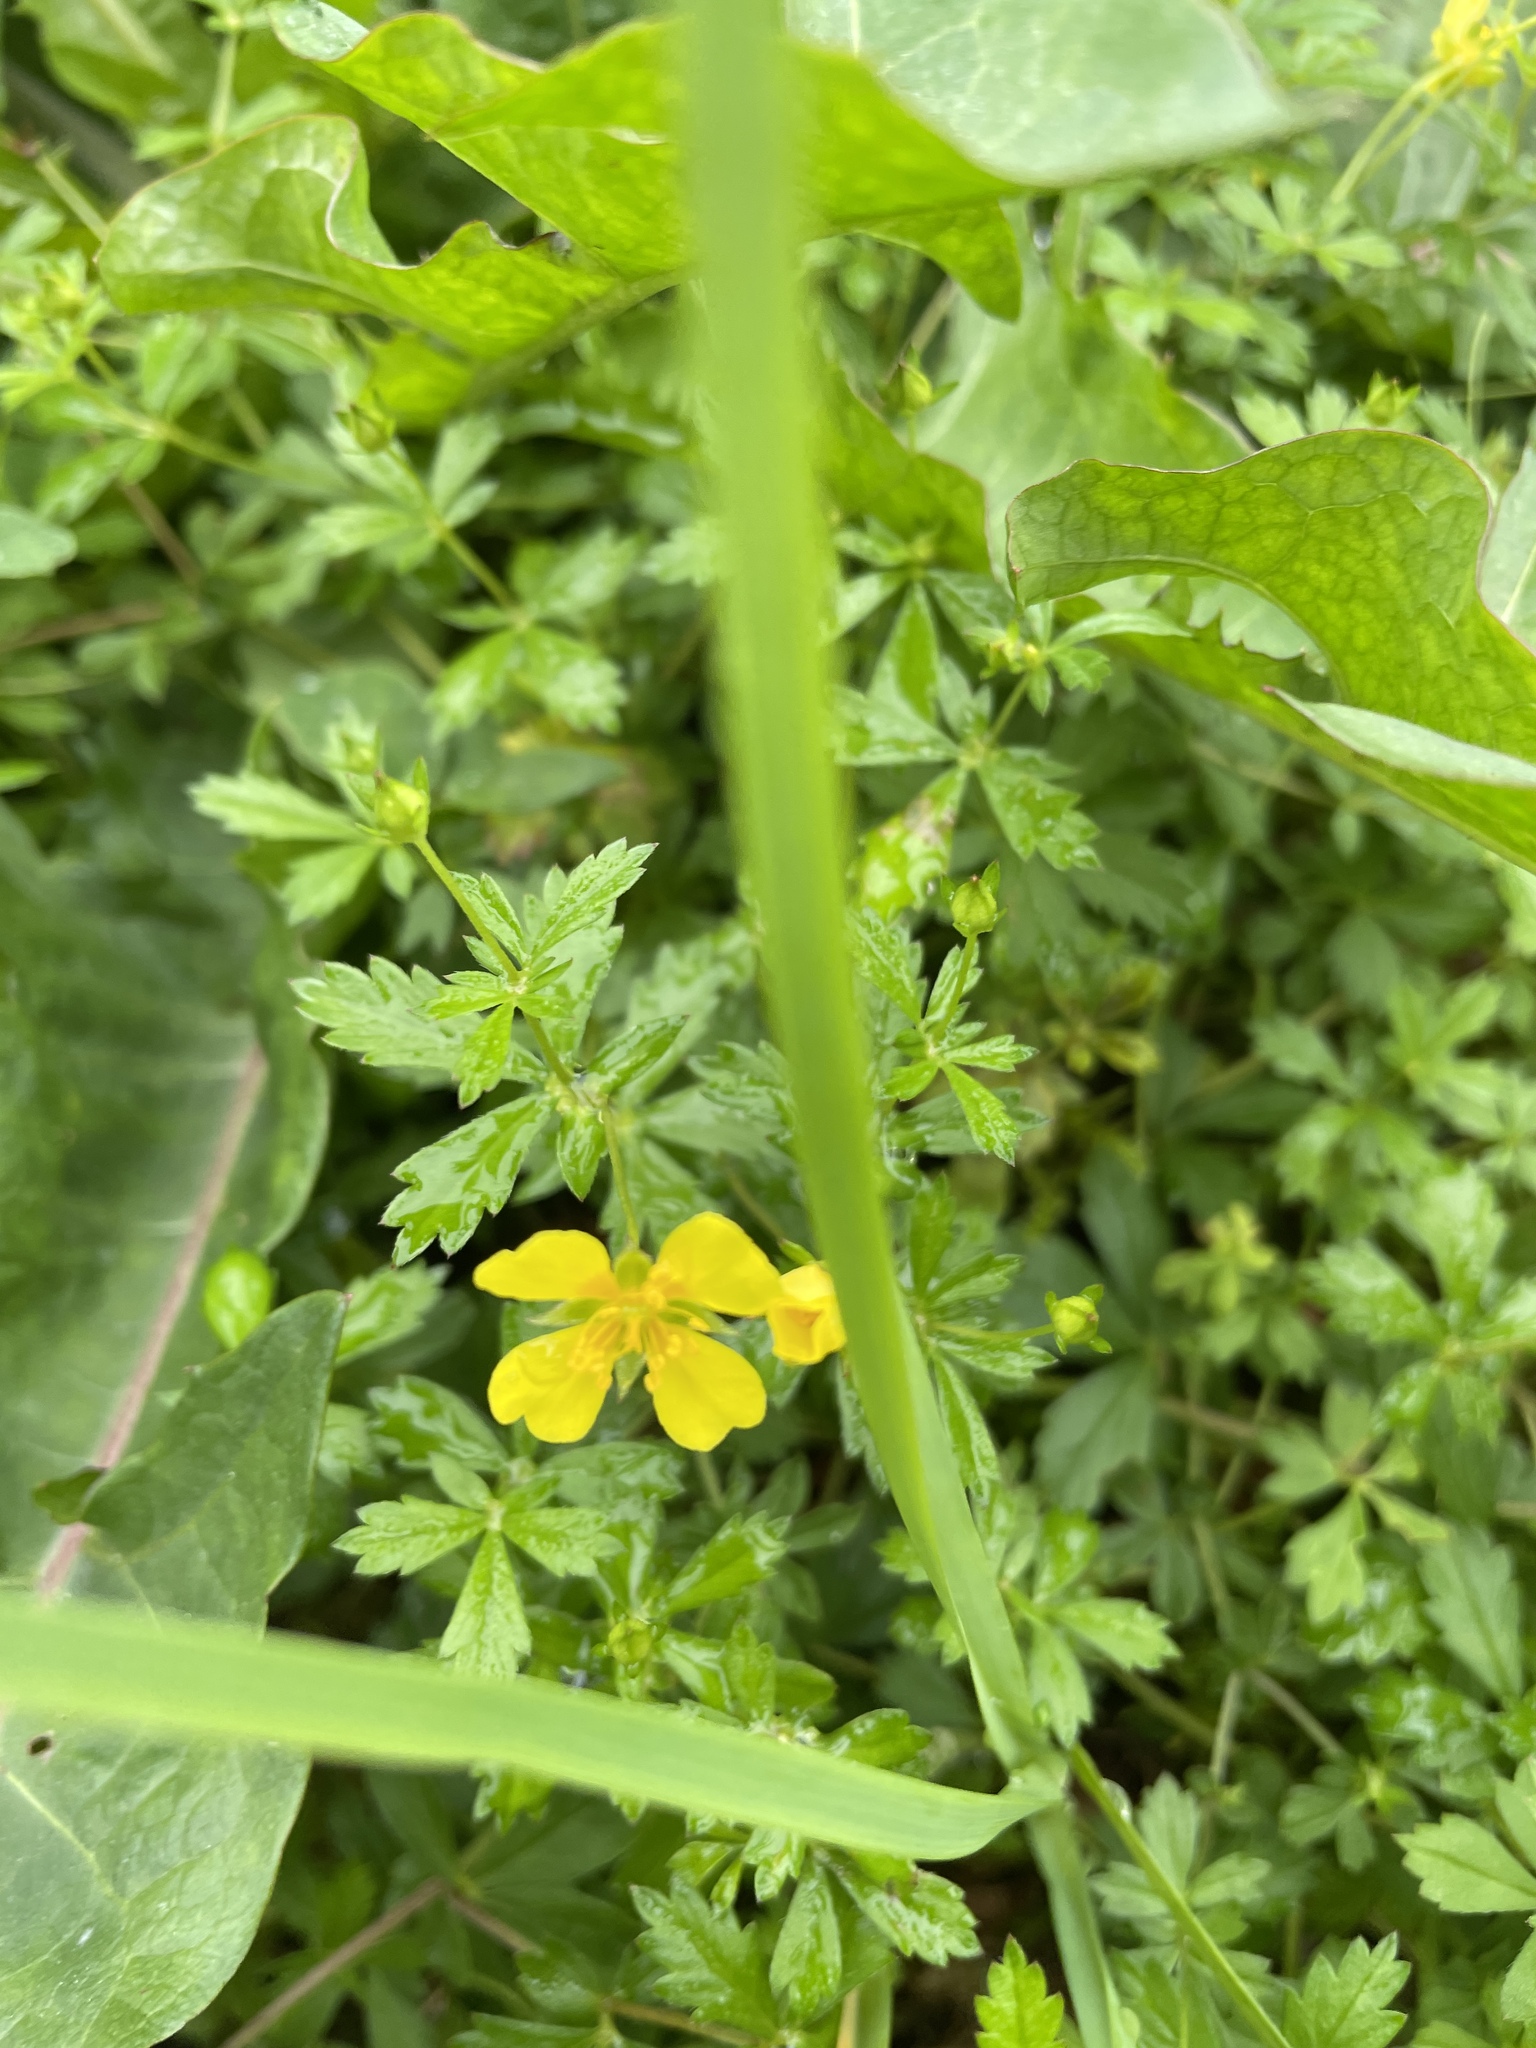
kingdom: Plantae
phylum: Tracheophyta
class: Magnoliopsida
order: Rosales
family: Rosaceae
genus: Potentilla
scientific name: Potentilla erecta
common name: Tormentil
